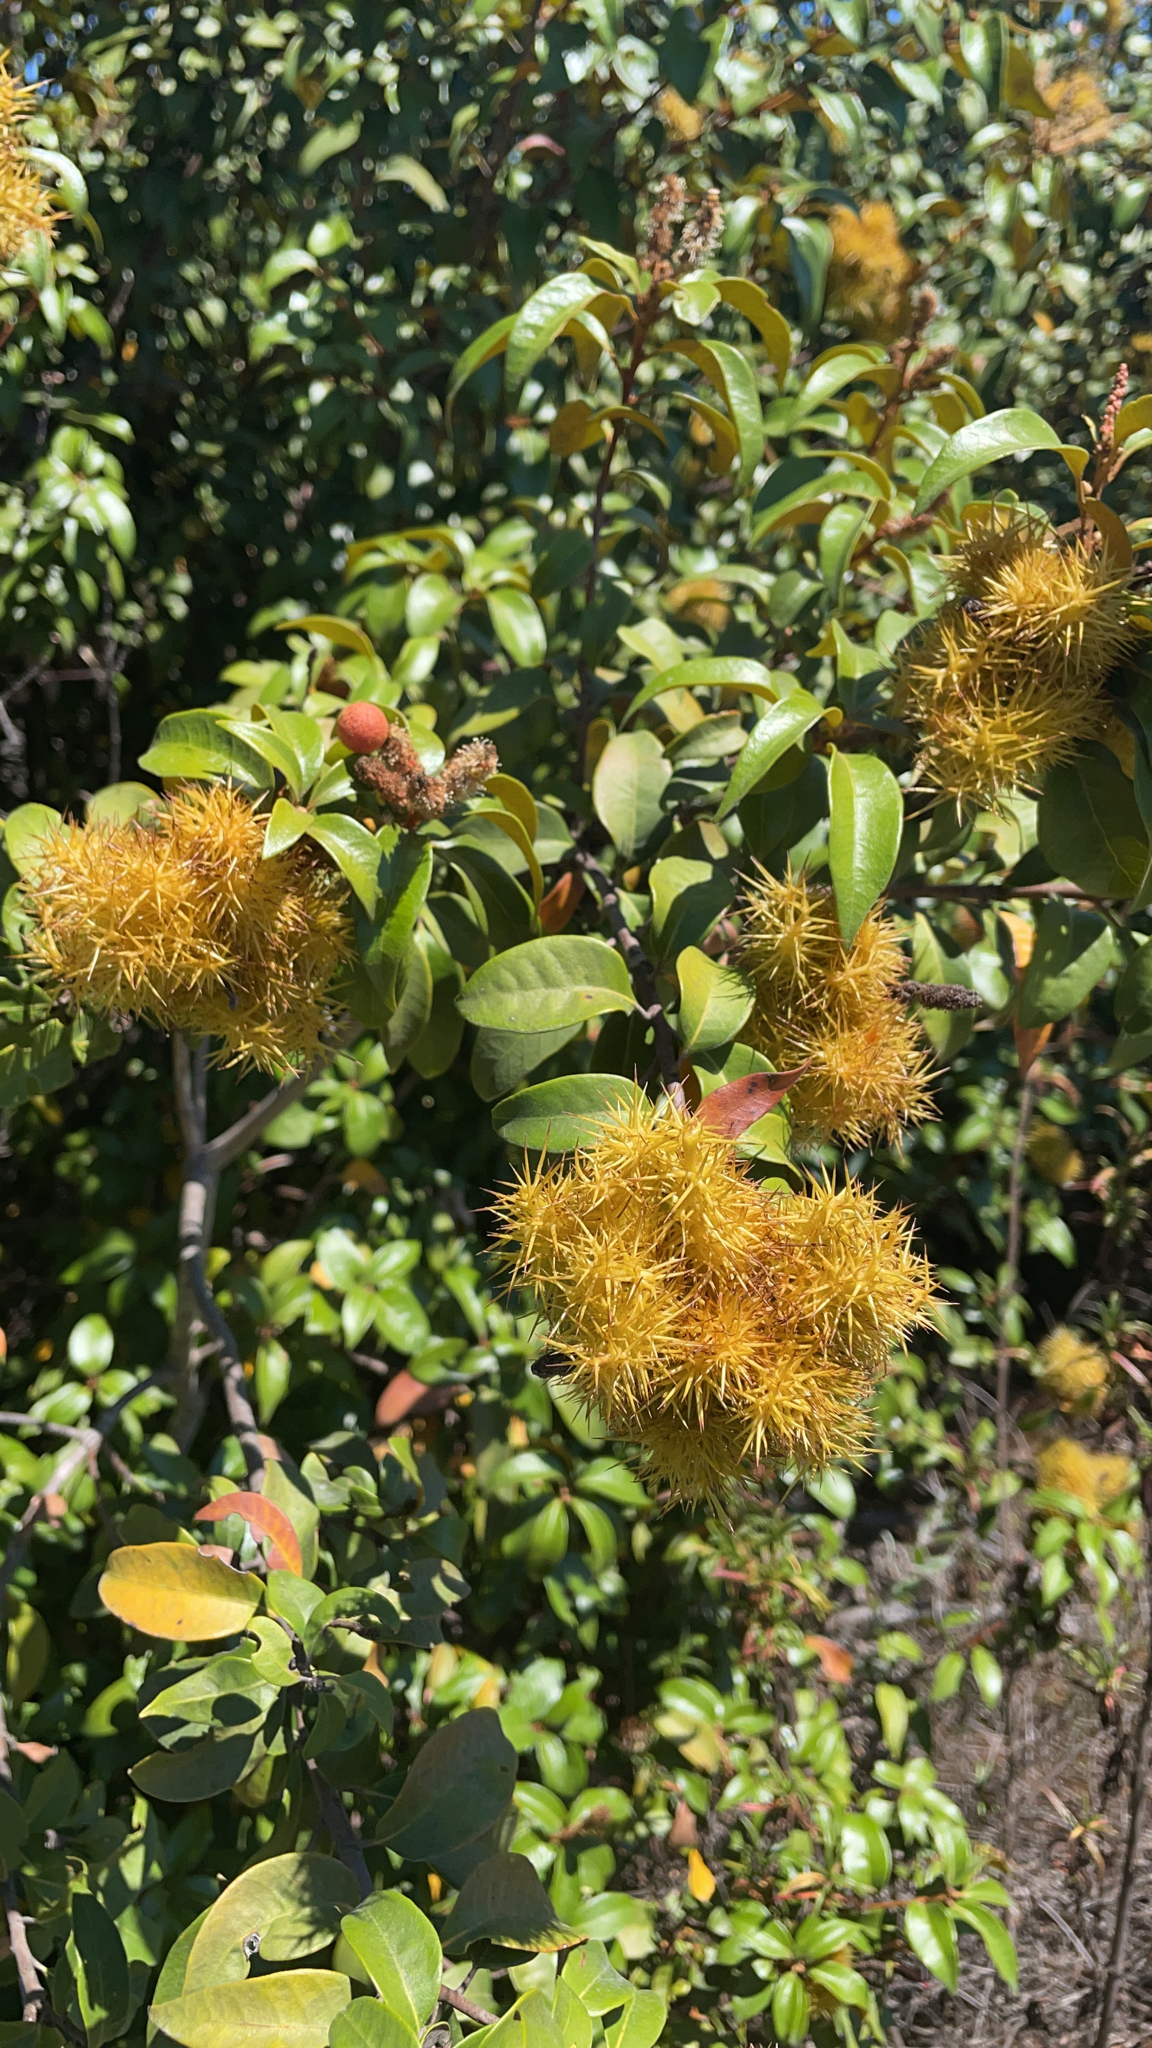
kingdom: Plantae
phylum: Tracheophyta
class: Magnoliopsida
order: Fagales
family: Fagaceae
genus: Chrysolepis
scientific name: Chrysolepis chrysophylla
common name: Giant chinquapin
